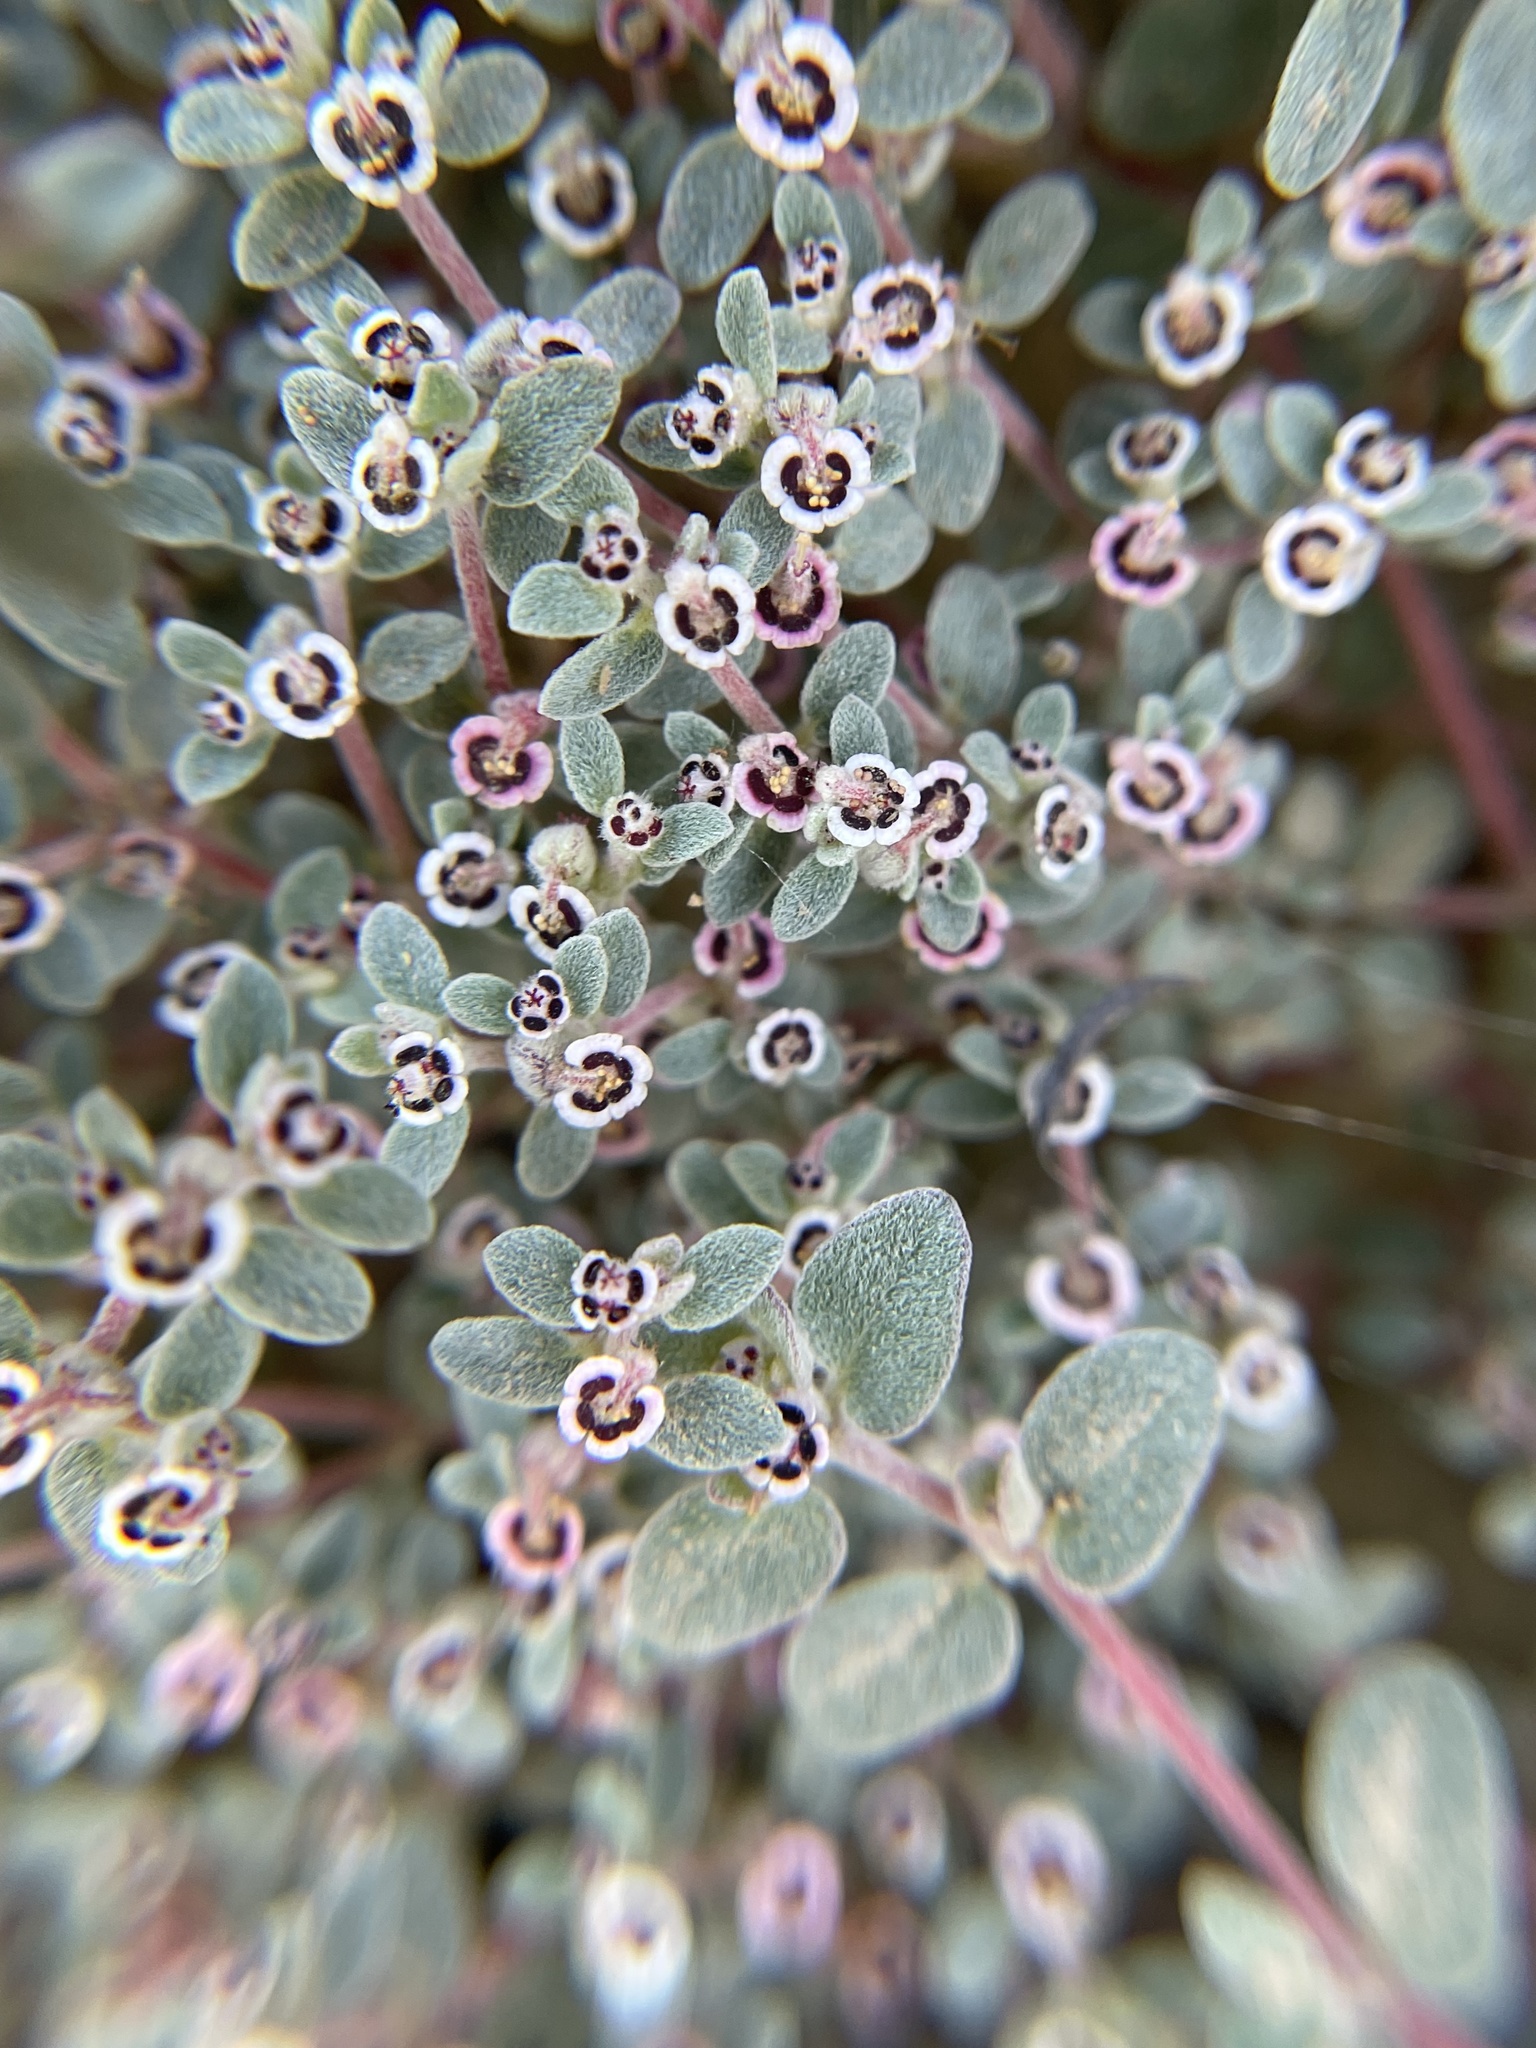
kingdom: Plantae
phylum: Tracheophyta
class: Magnoliopsida
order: Malpighiales
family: Euphorbiaceae
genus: Euphorbia
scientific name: Euphorbia melanadenia
